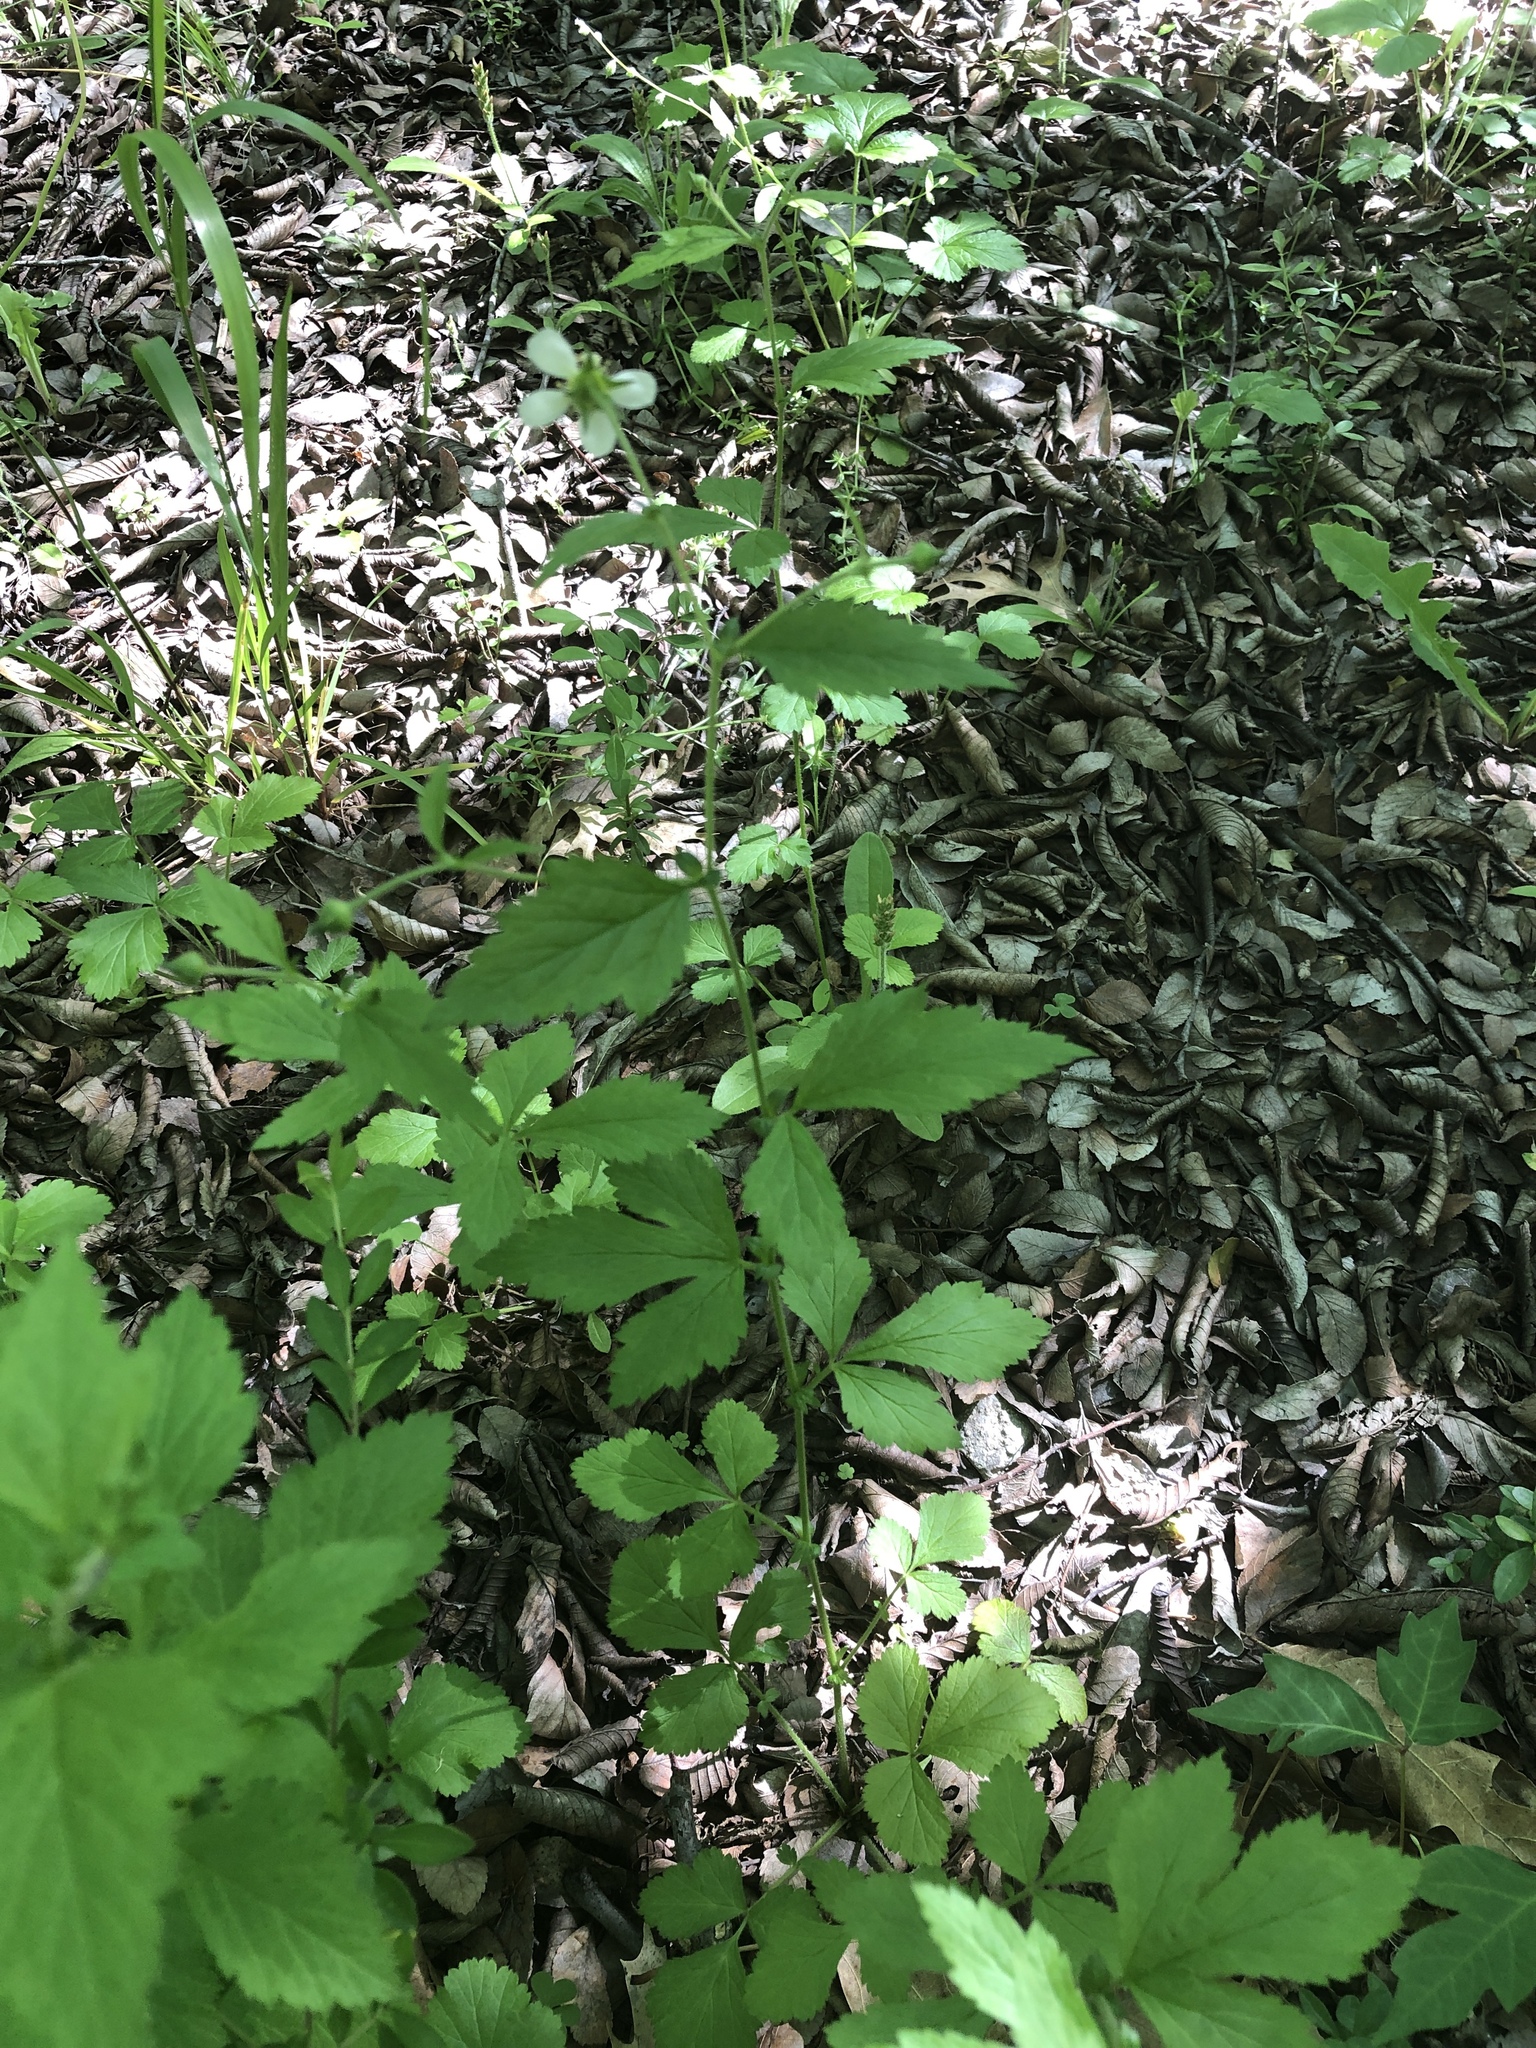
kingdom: Plantae
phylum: Tracheophyta
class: Magnoliopsida
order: Rosales
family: Rosaceae
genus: Geum
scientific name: Geum canadense
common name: White avens
